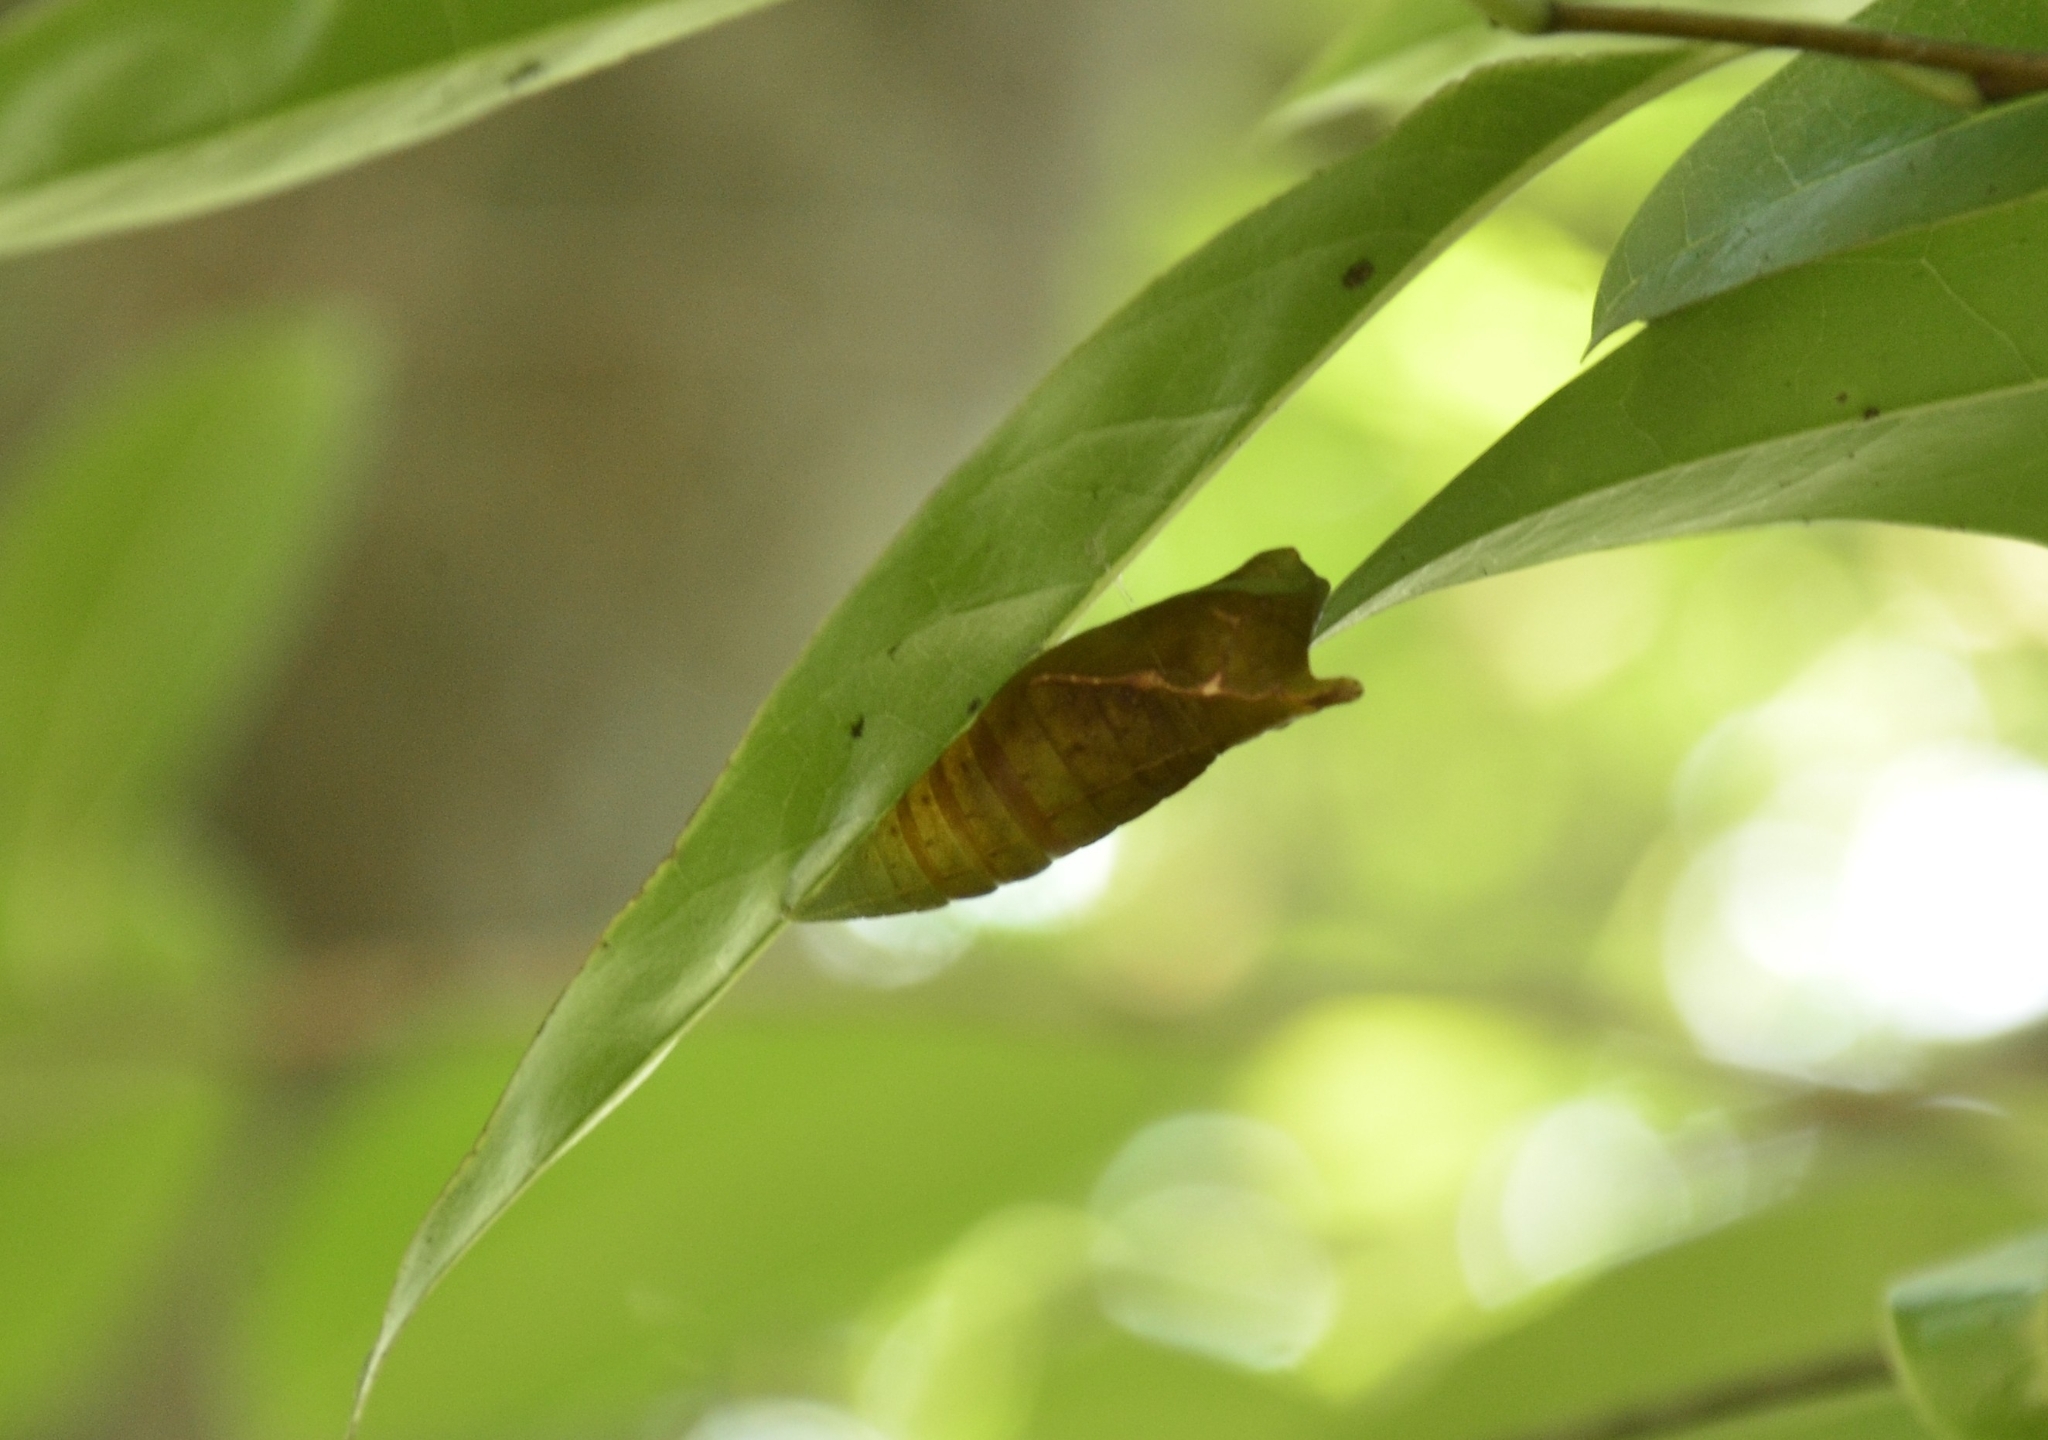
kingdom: Animalia
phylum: Arthropoda
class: Insecta
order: Lepidoptera
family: Papilionidae
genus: Graphium
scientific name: Graphium agamemnon
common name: Tailed jay
